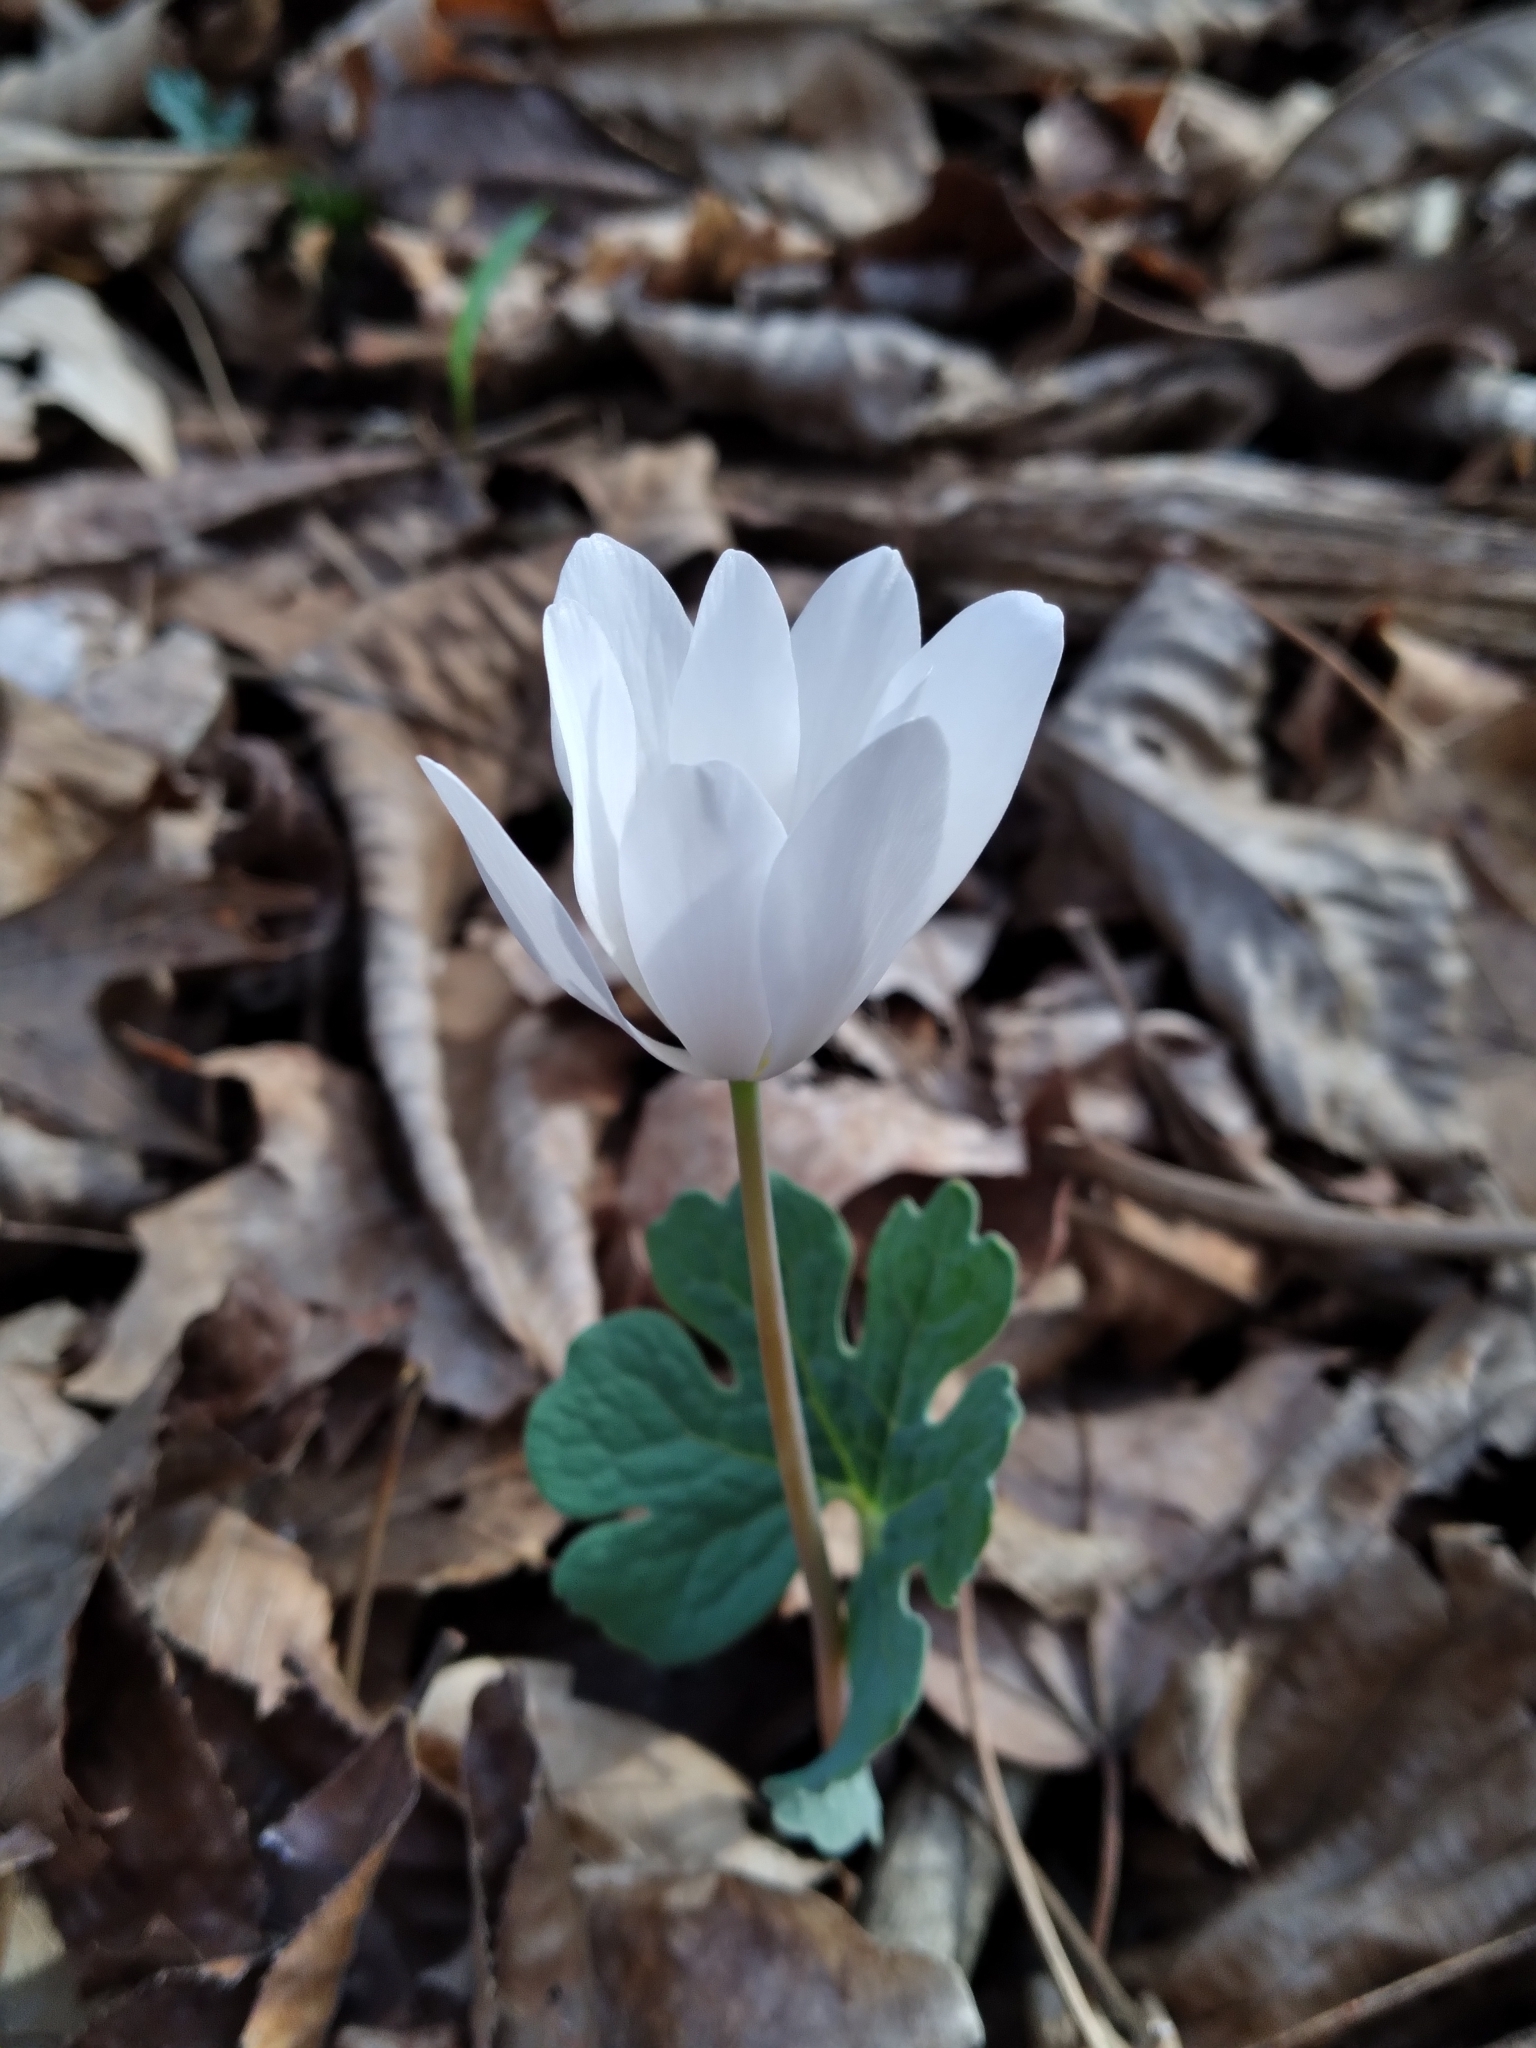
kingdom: Plantae
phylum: Tracheophyta
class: Magnoliopsida
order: Ranunculales
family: Papaveraceae
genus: Sanguinaria
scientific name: Sanguinaria canadensis
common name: Bloodroot
